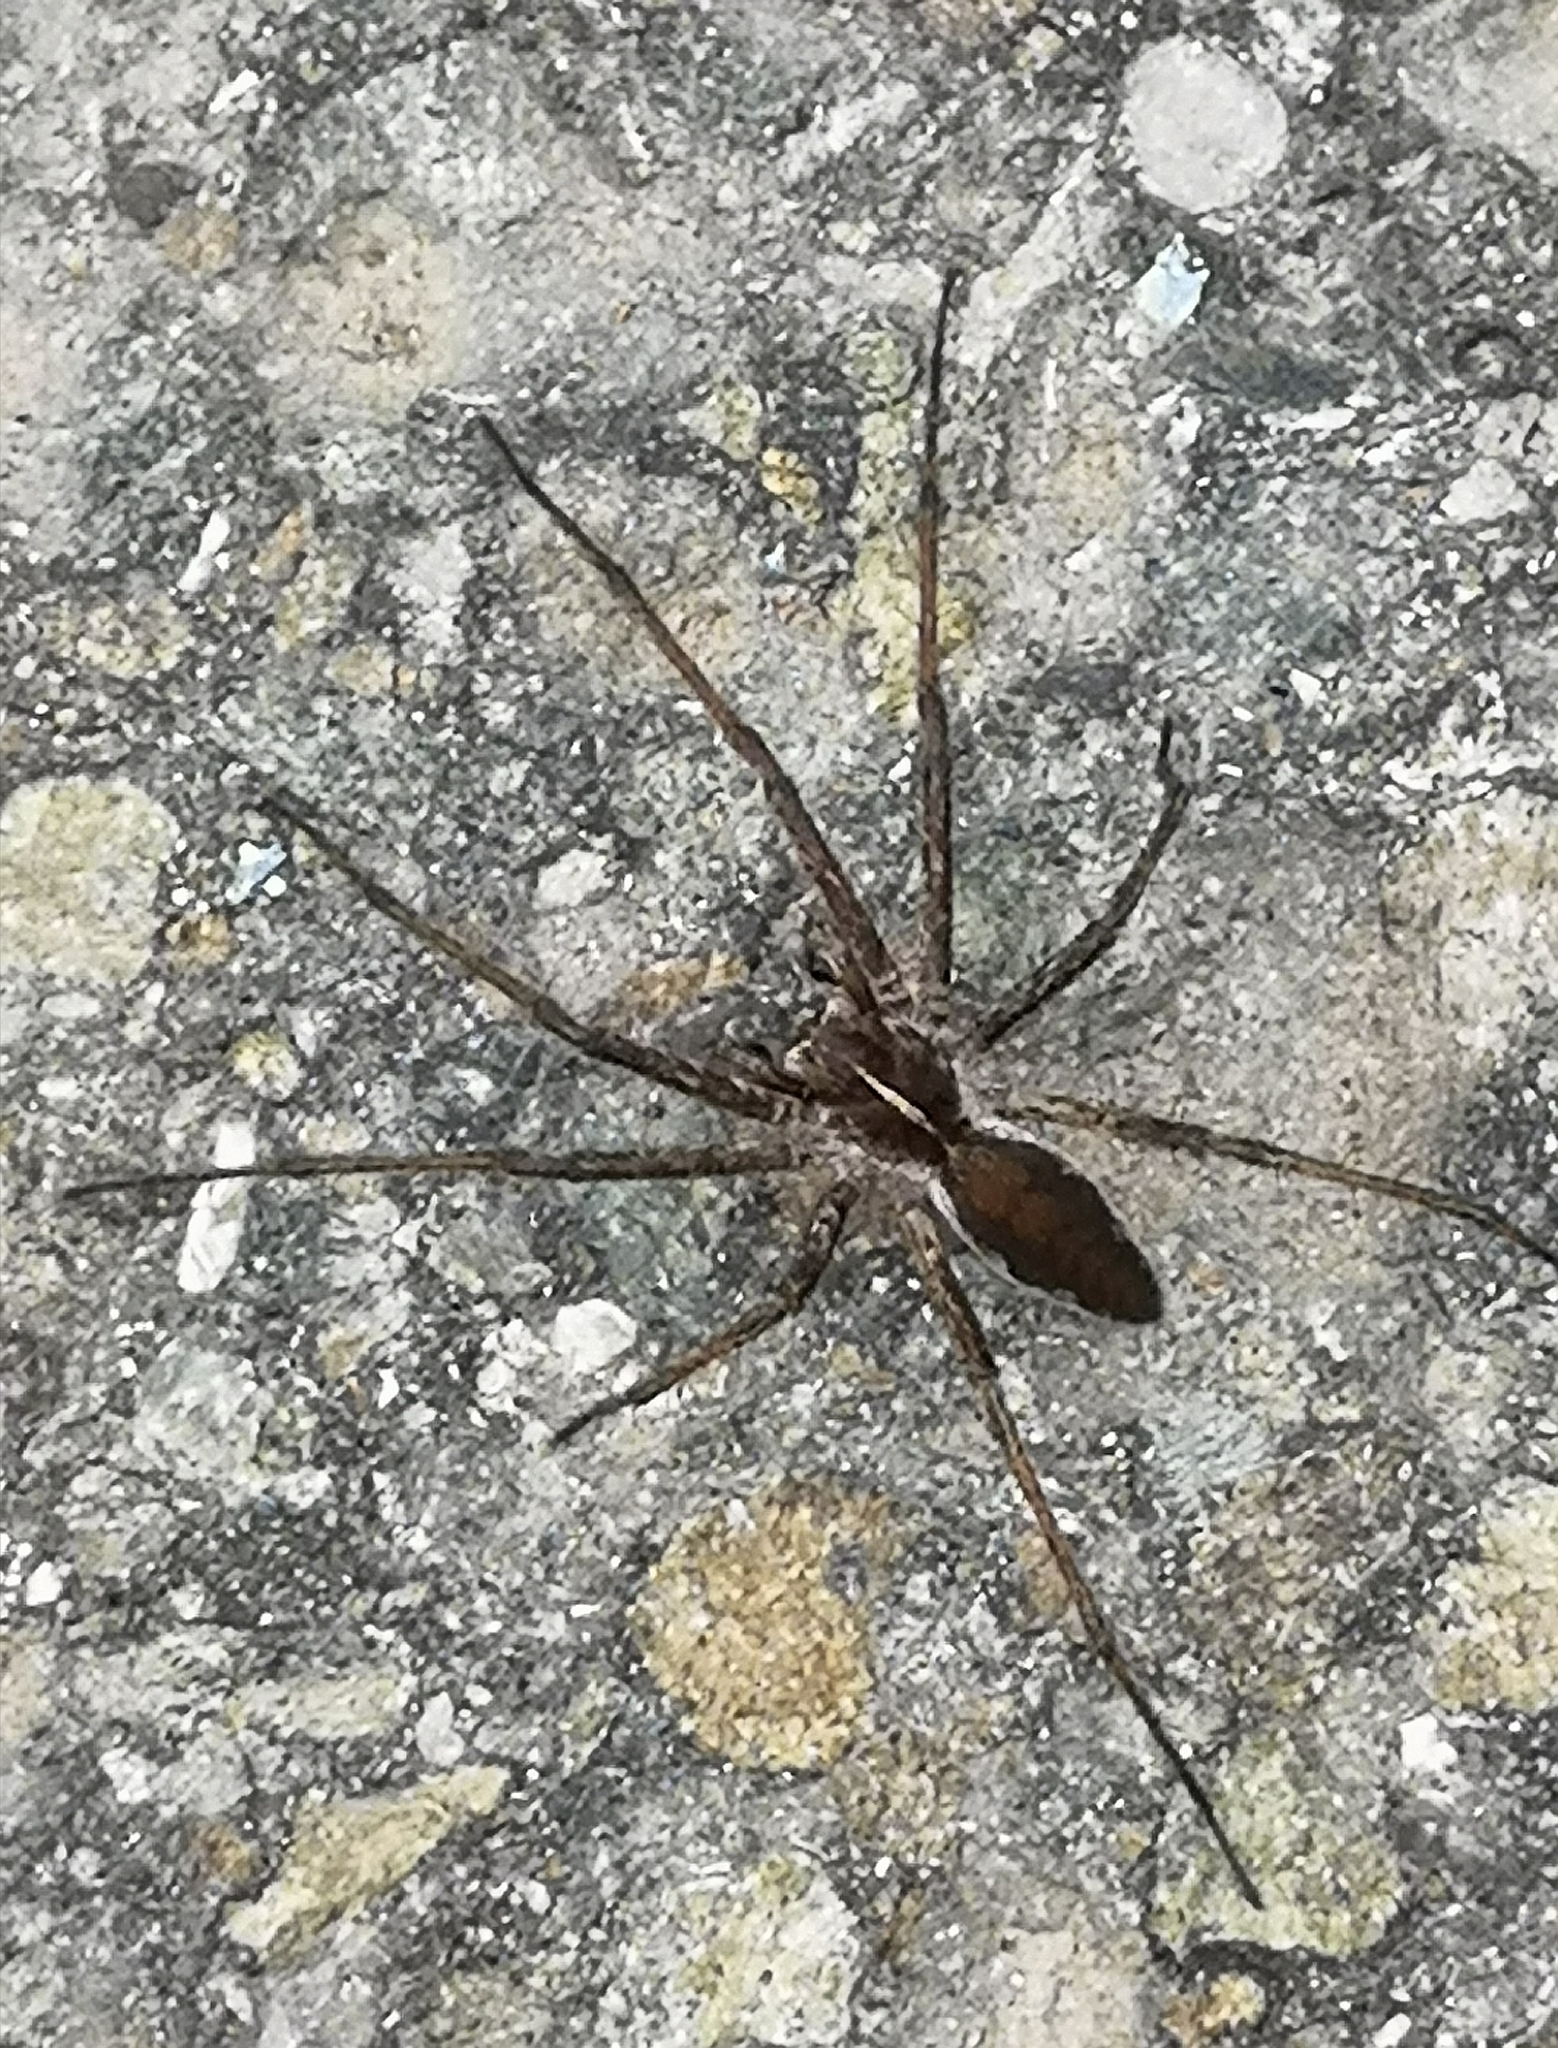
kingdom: Animalia
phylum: Arthropoda
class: Arachnida
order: Araneae
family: Pisauridae
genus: Pisaura
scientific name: Pisaura mirabilis
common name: Tent spider
